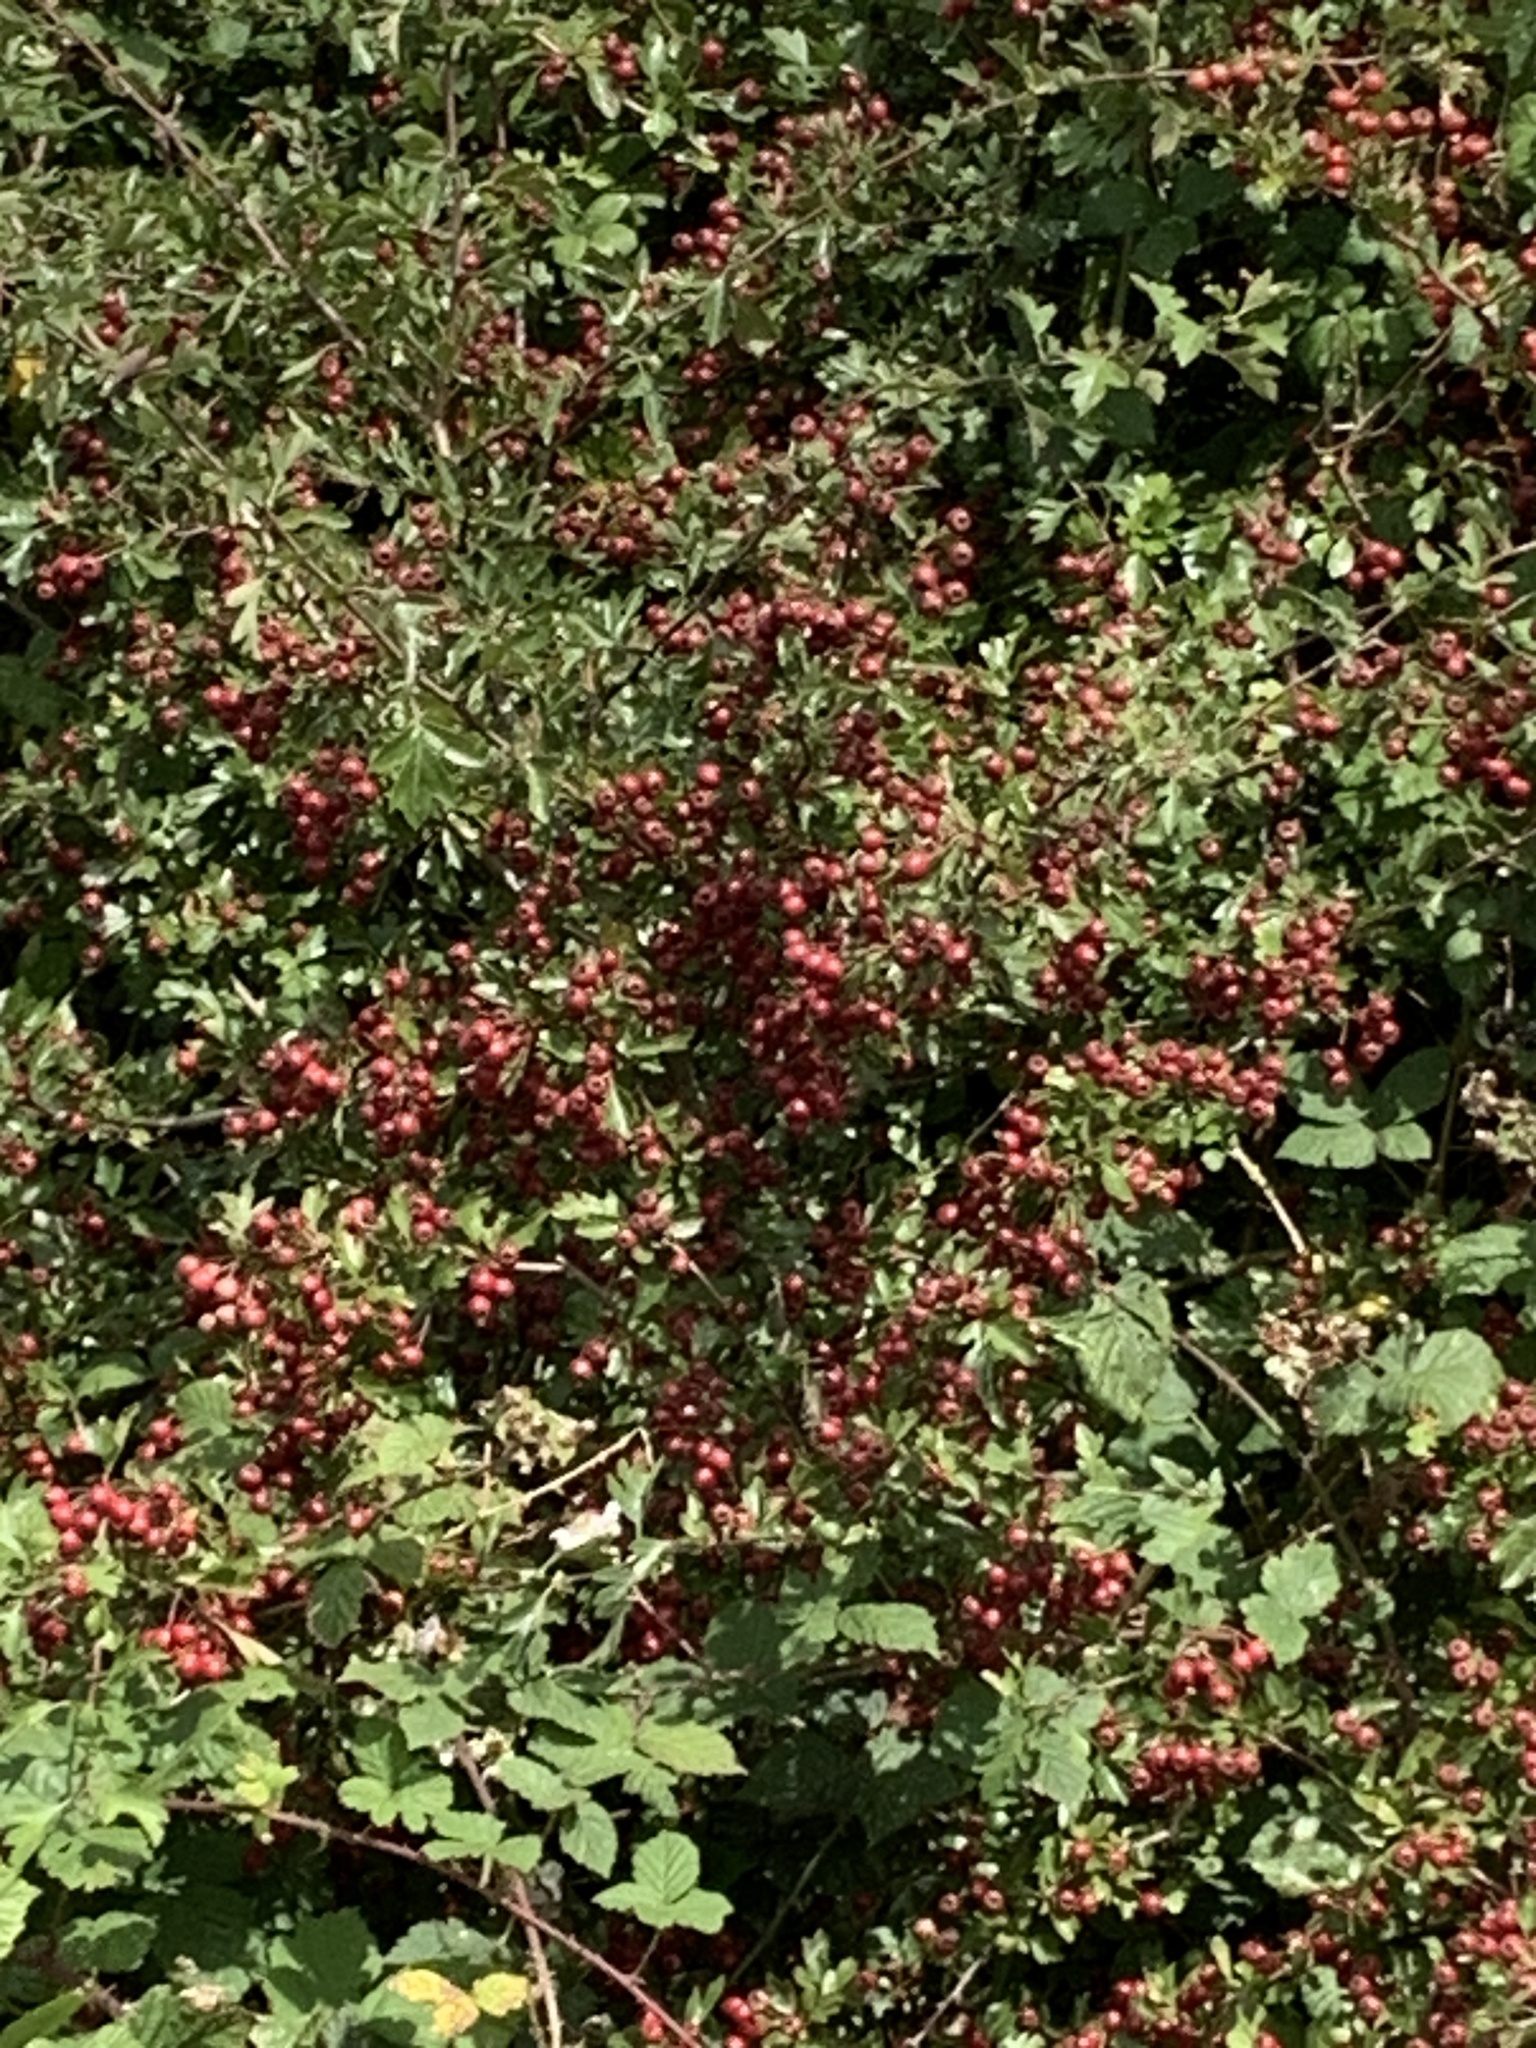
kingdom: Plantae
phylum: Tracheophyta
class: Magnoliopsida
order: Rosales
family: Rosaceae
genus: Crataegus
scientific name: Crataegus monogyna
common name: Hawthorn
